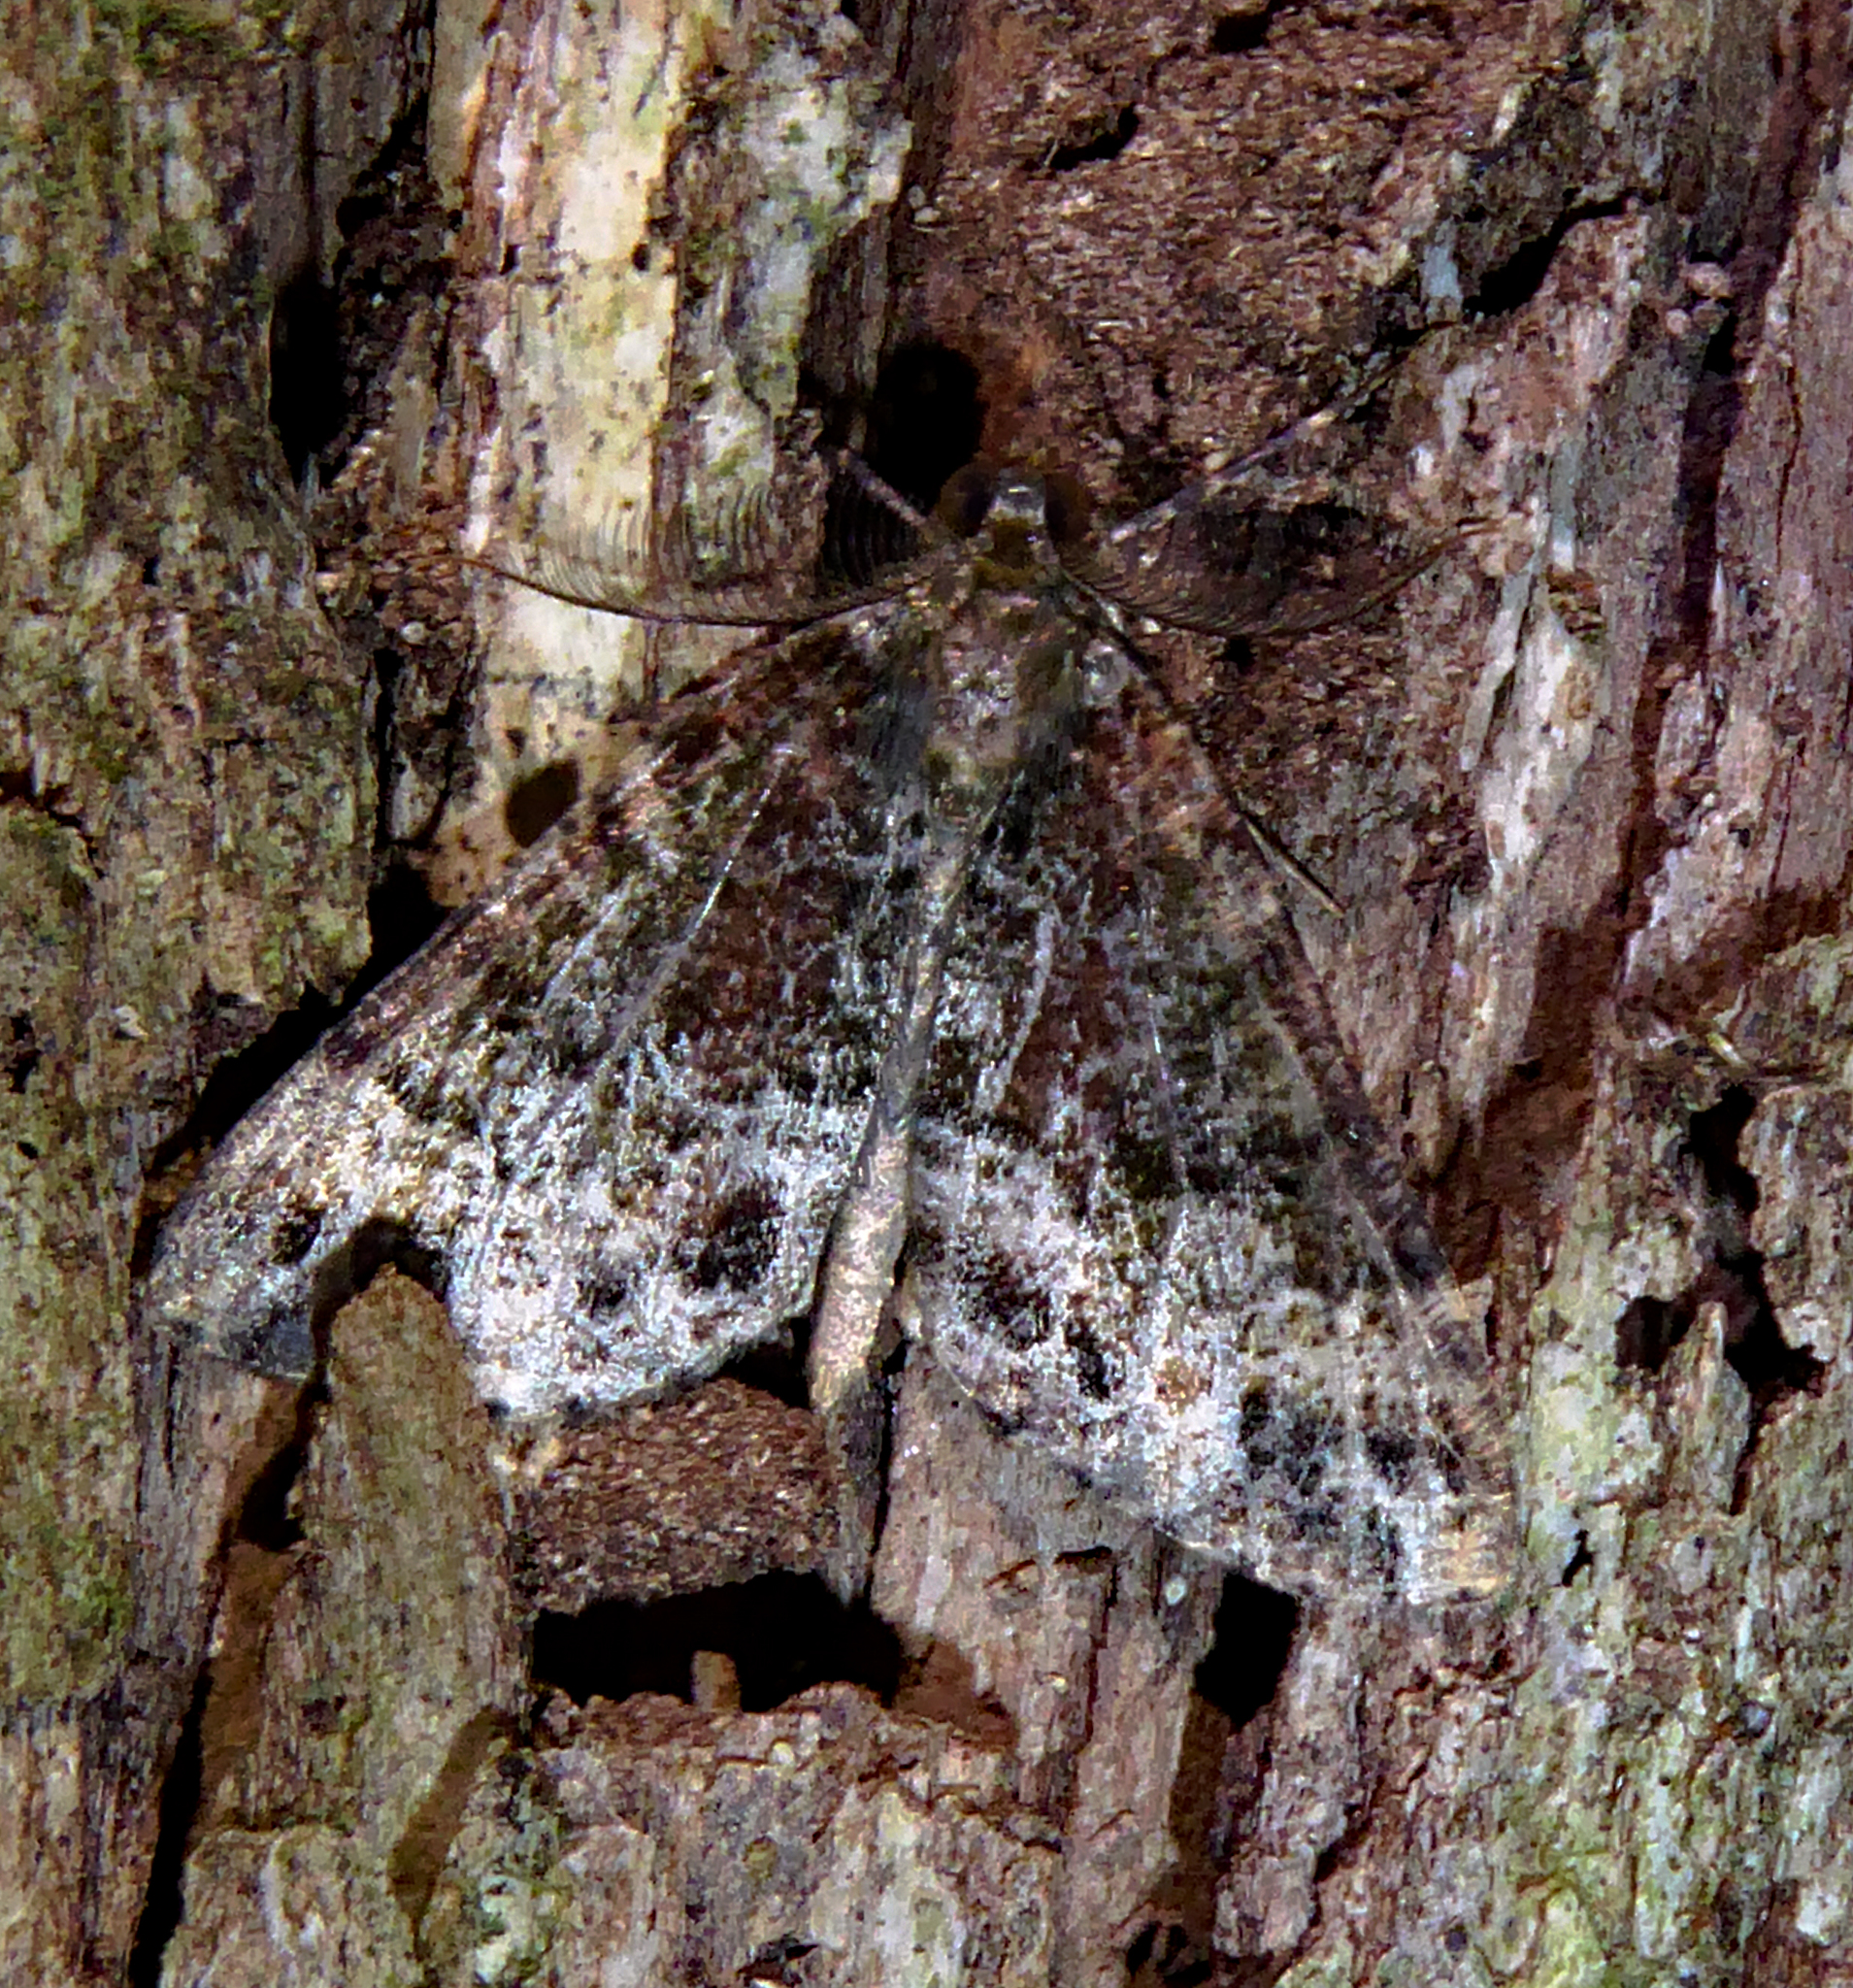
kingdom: Animalia
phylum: Arthropoda
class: Insecta
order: Lepidoptera
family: Geometridae
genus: Pseudocoremia
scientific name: Pseudocoremia productata
